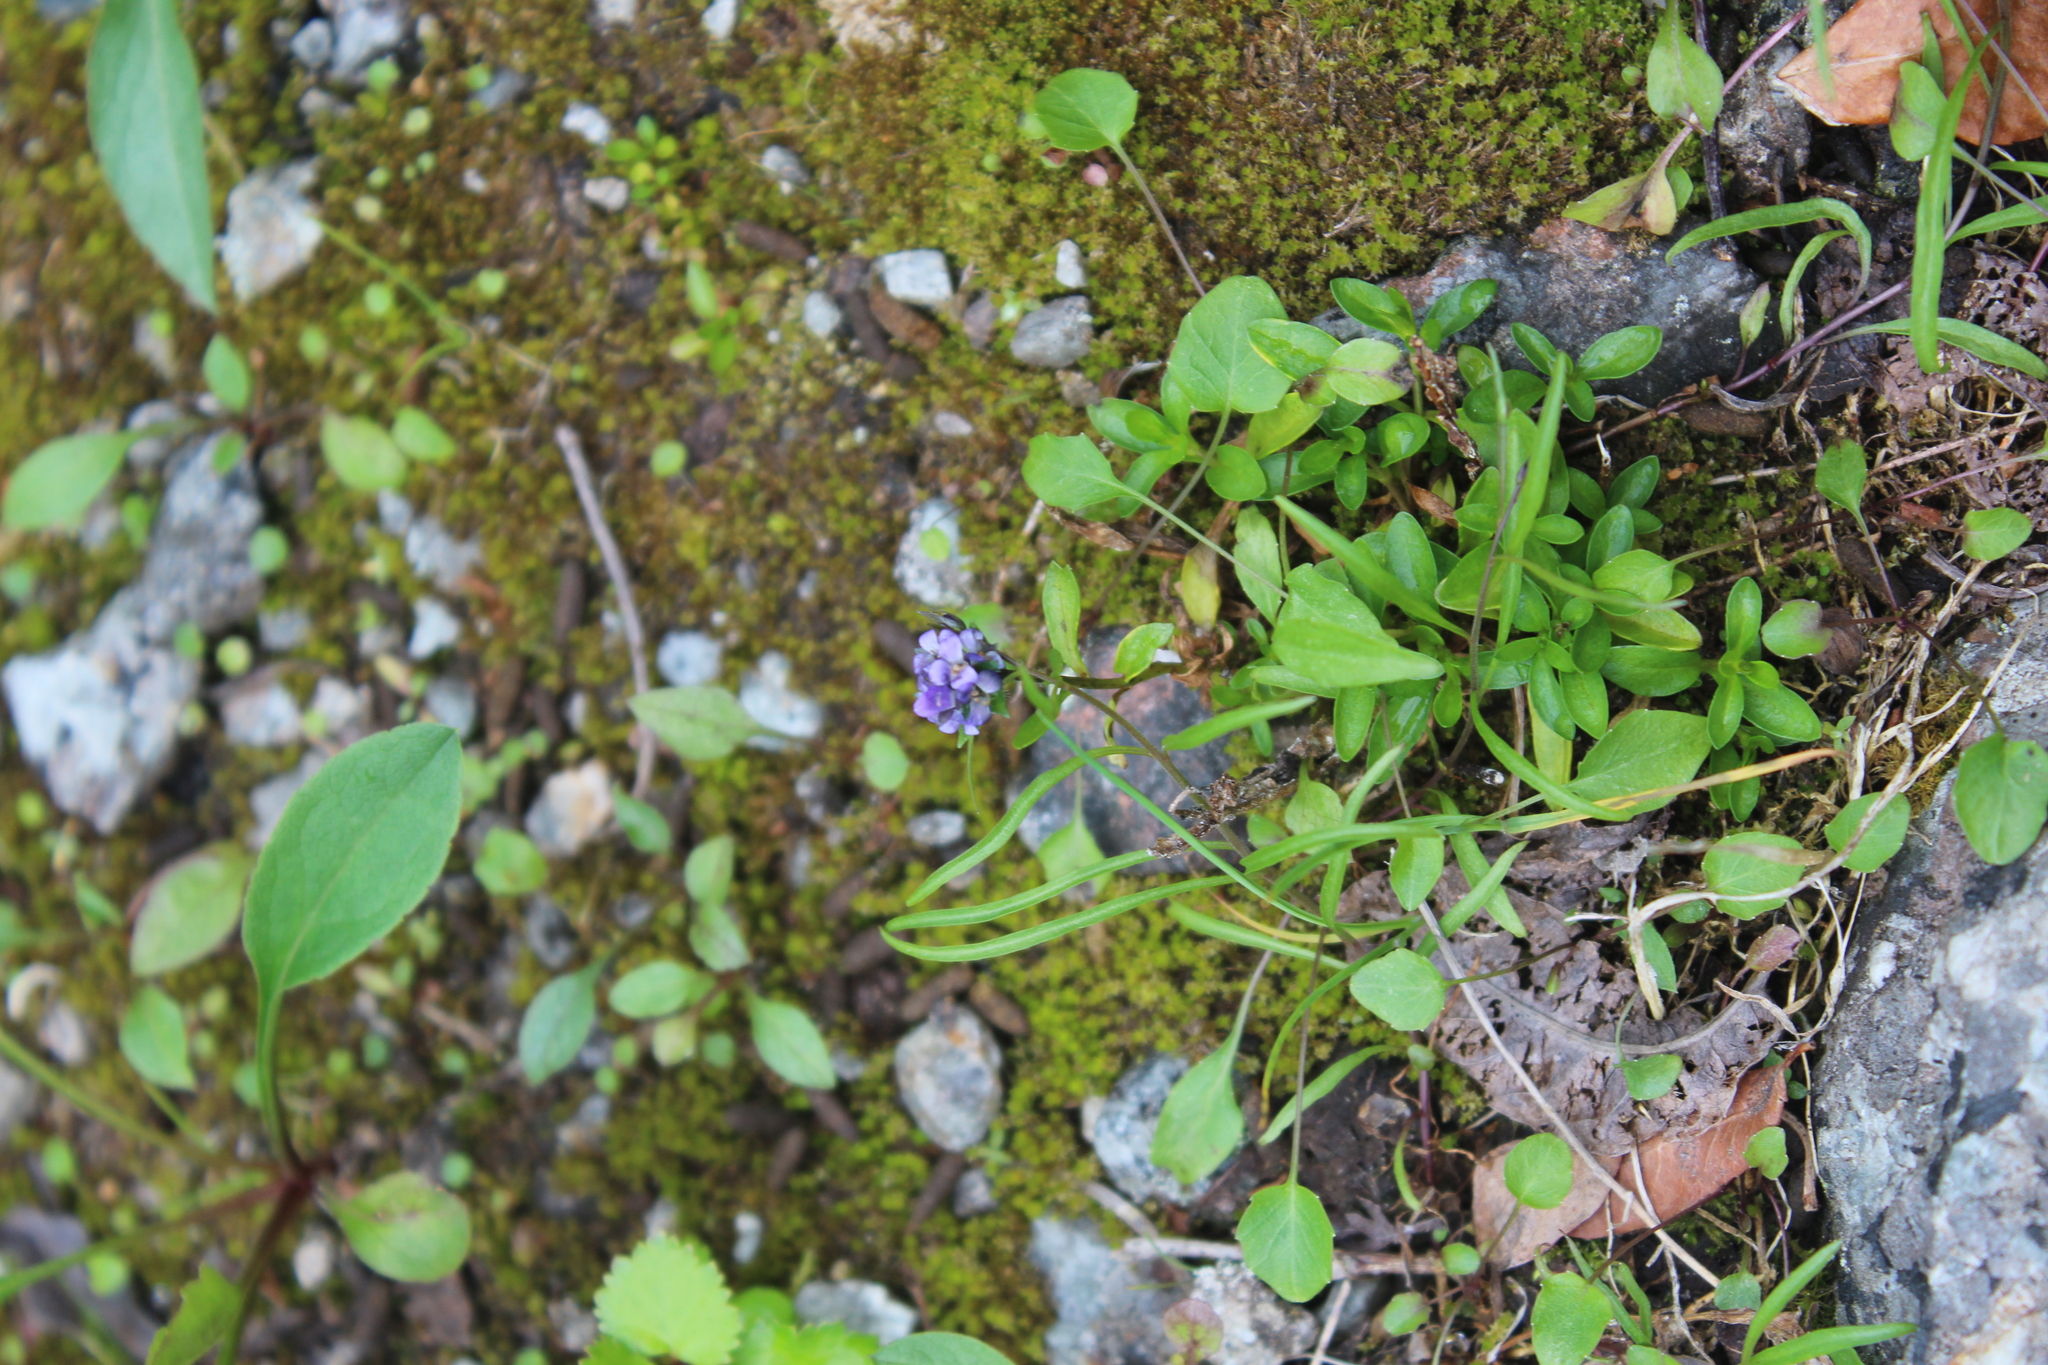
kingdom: Plantae
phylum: Tracheophyta
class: Magnoliopsida
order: Lamiales
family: Plantaginaceae
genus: Veronica
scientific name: Veronica alpina
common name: Alpine speedwell
